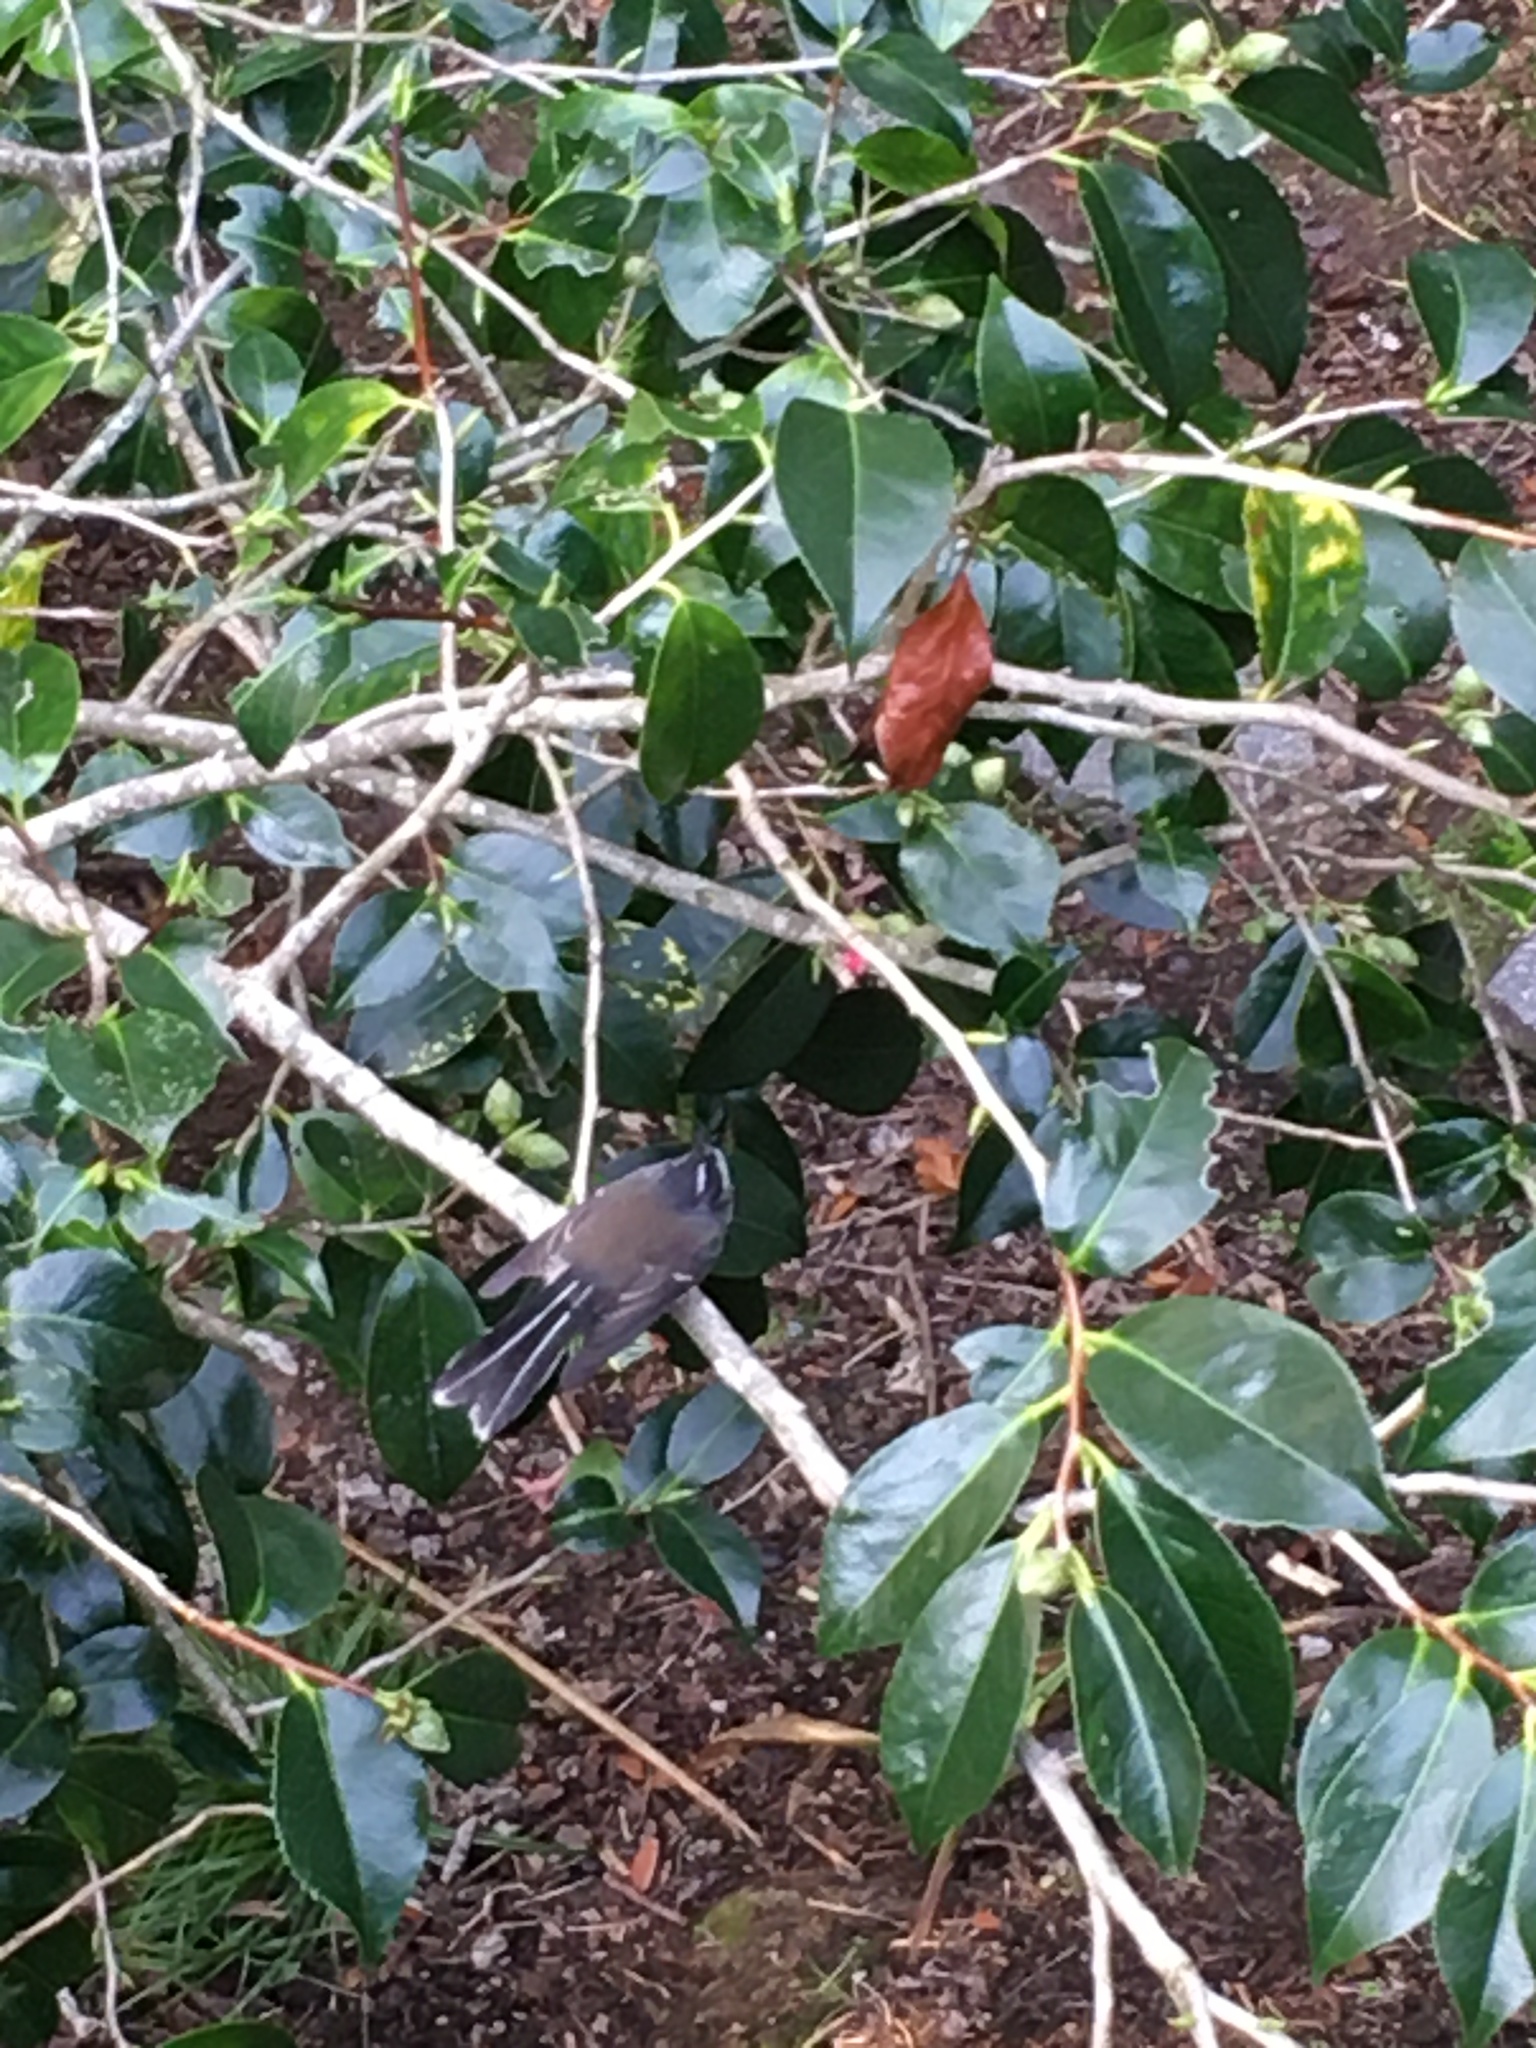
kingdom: Animalia
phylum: Chordata
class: Aves
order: Passeriformes
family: Rhipiduridae
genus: Rhipidura
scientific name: Rhipidura fuliginosa
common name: New zealand fantail
